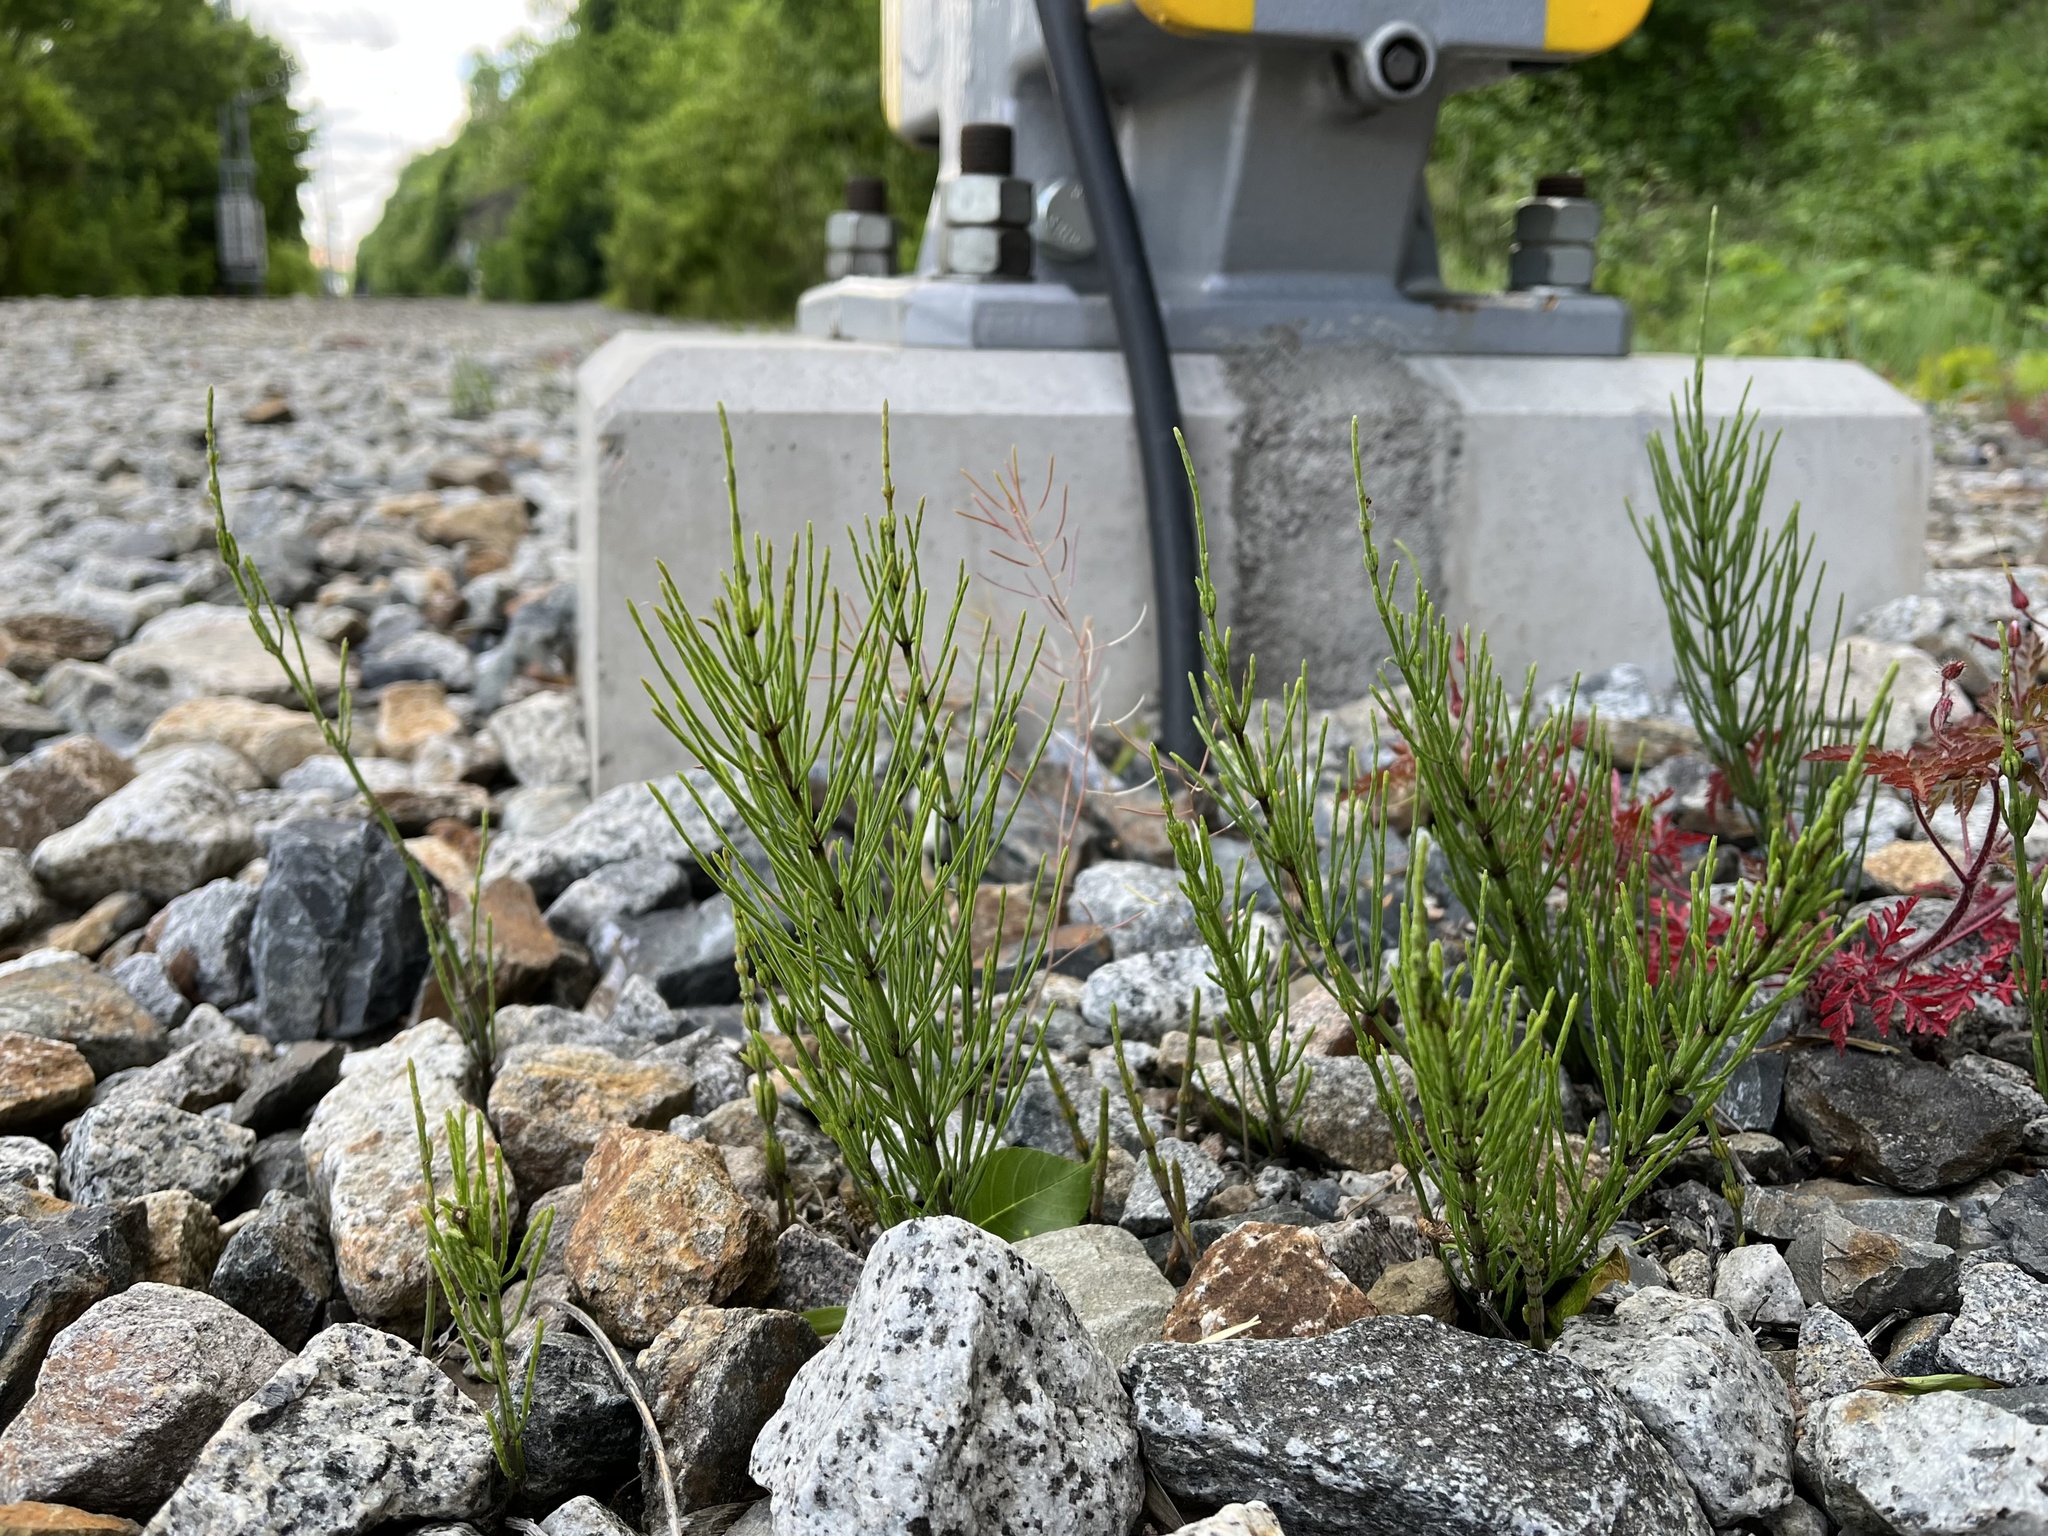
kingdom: Plantae
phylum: Tracheophyta
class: Polypodiopsida
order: Equisetales
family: Equisetaceae
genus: Equisetum
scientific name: Equisetum arvense
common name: Field horsetail
